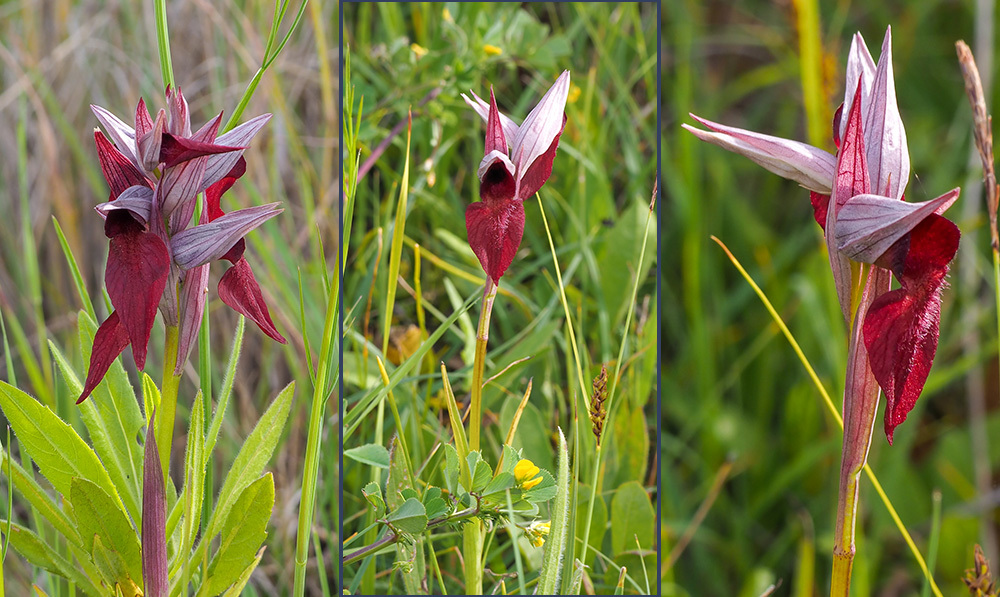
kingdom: Plantae
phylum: Tracheophyta
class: Liliopsida
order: Asparagales
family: Orchidaceae
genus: Serapias
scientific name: Serapias cordigera
